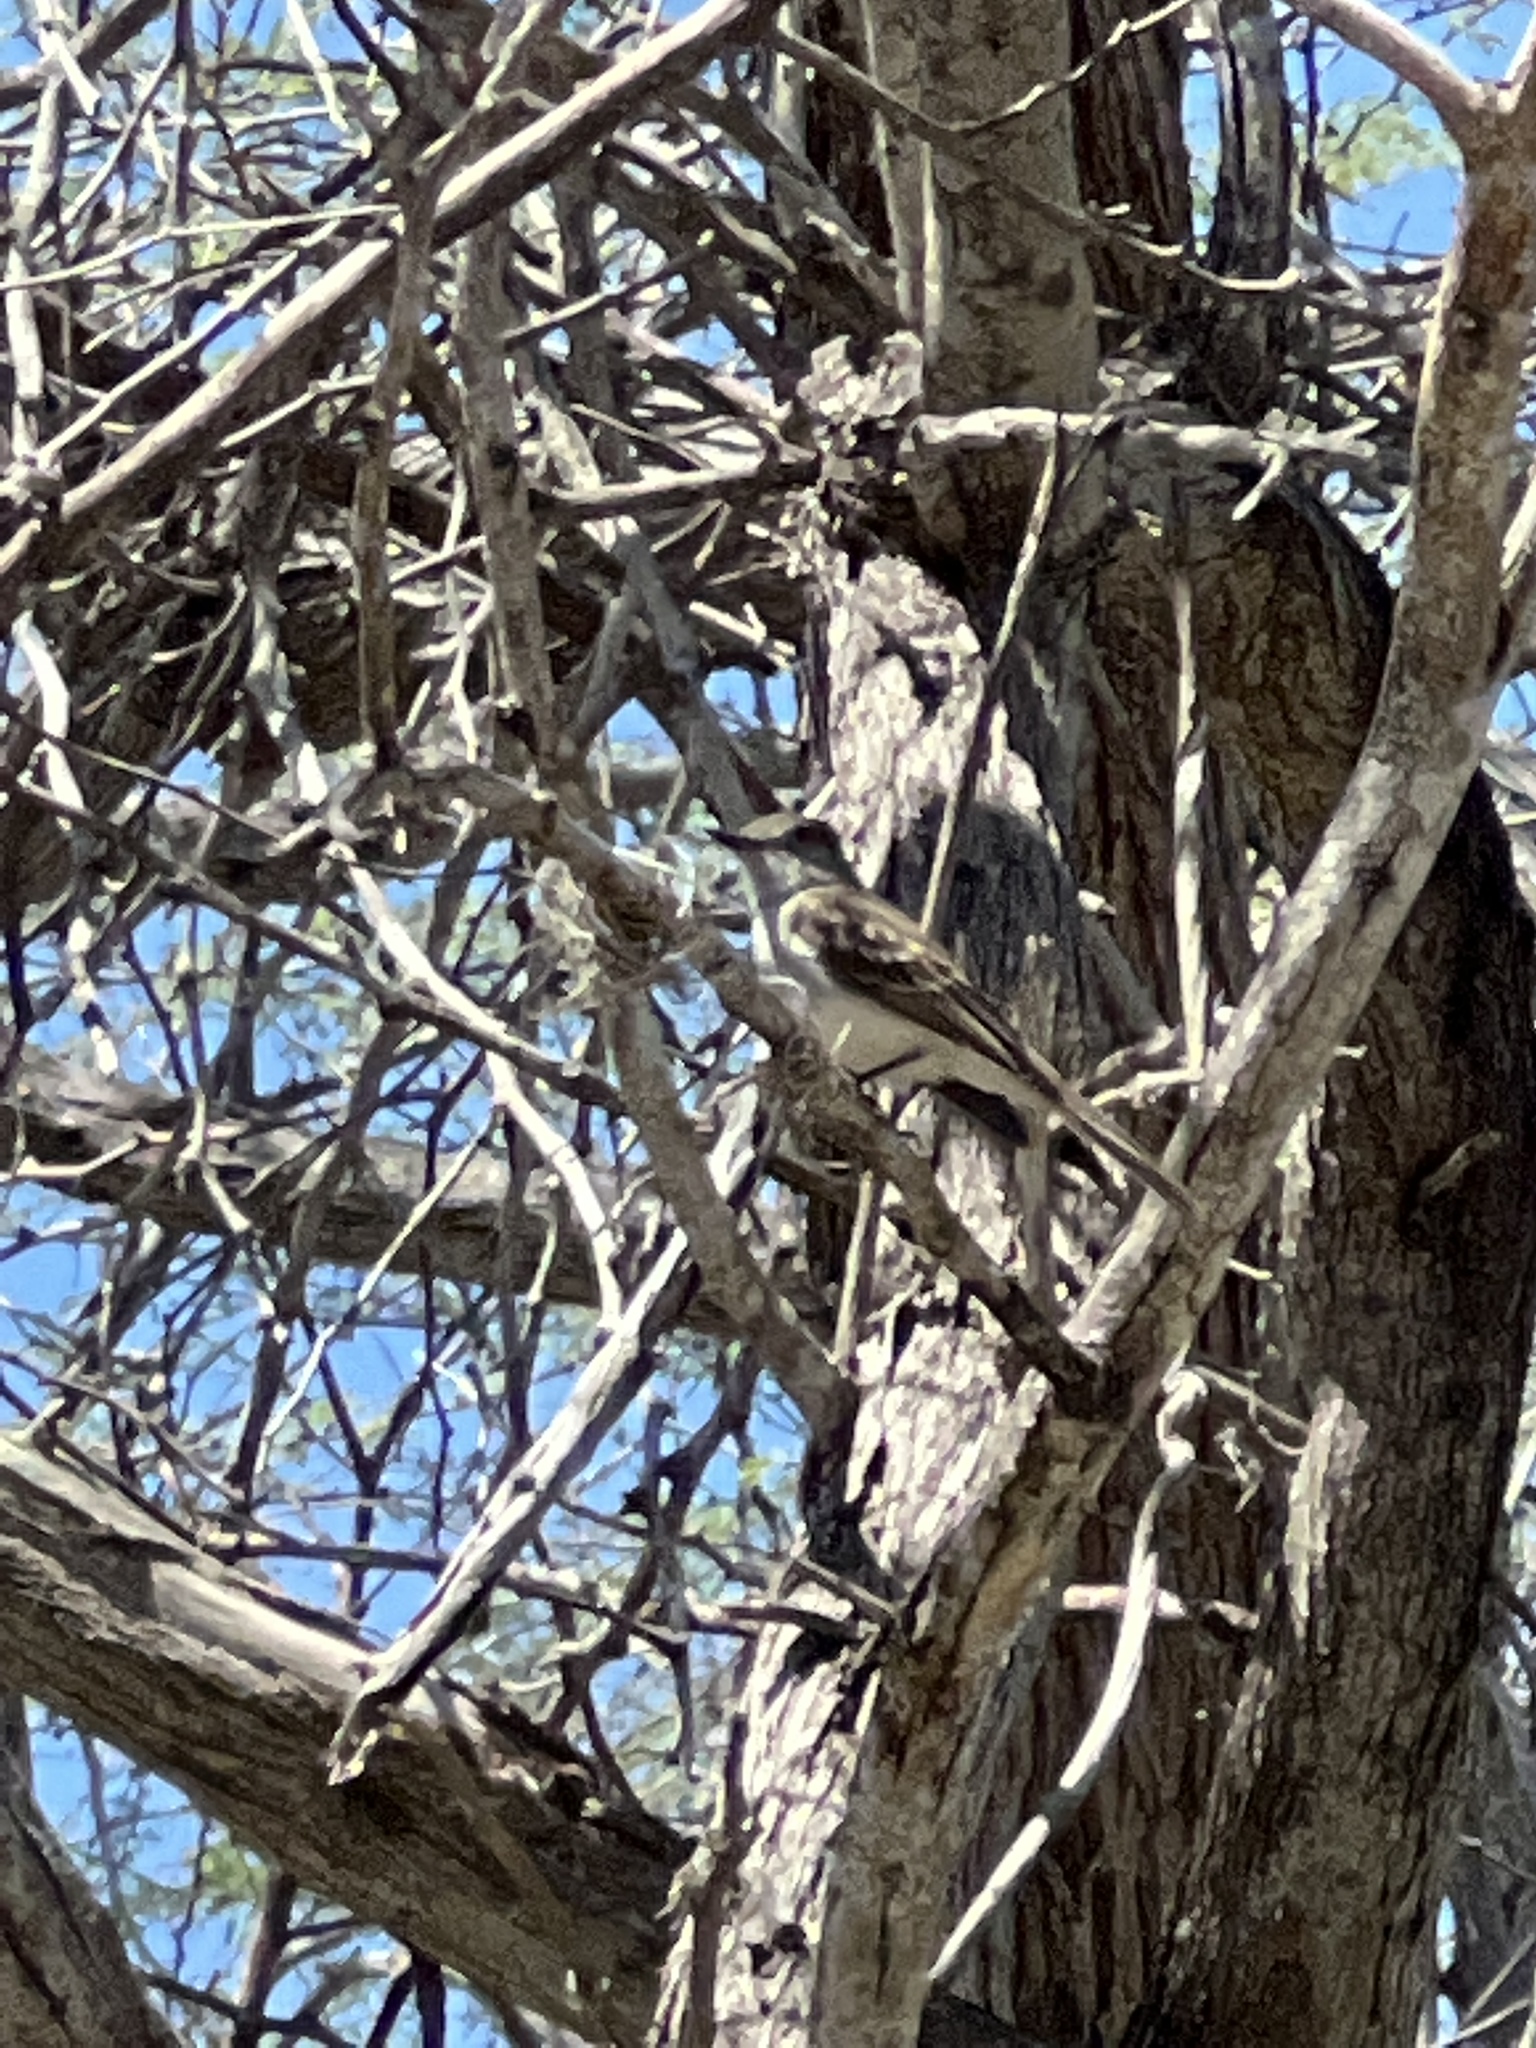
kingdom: Animalia
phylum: Chordata
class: Aves
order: Passeriformes
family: Tyrannidae
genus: Myiarchus
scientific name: Myiarchus antillarum
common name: Puerto rican flycatcher
